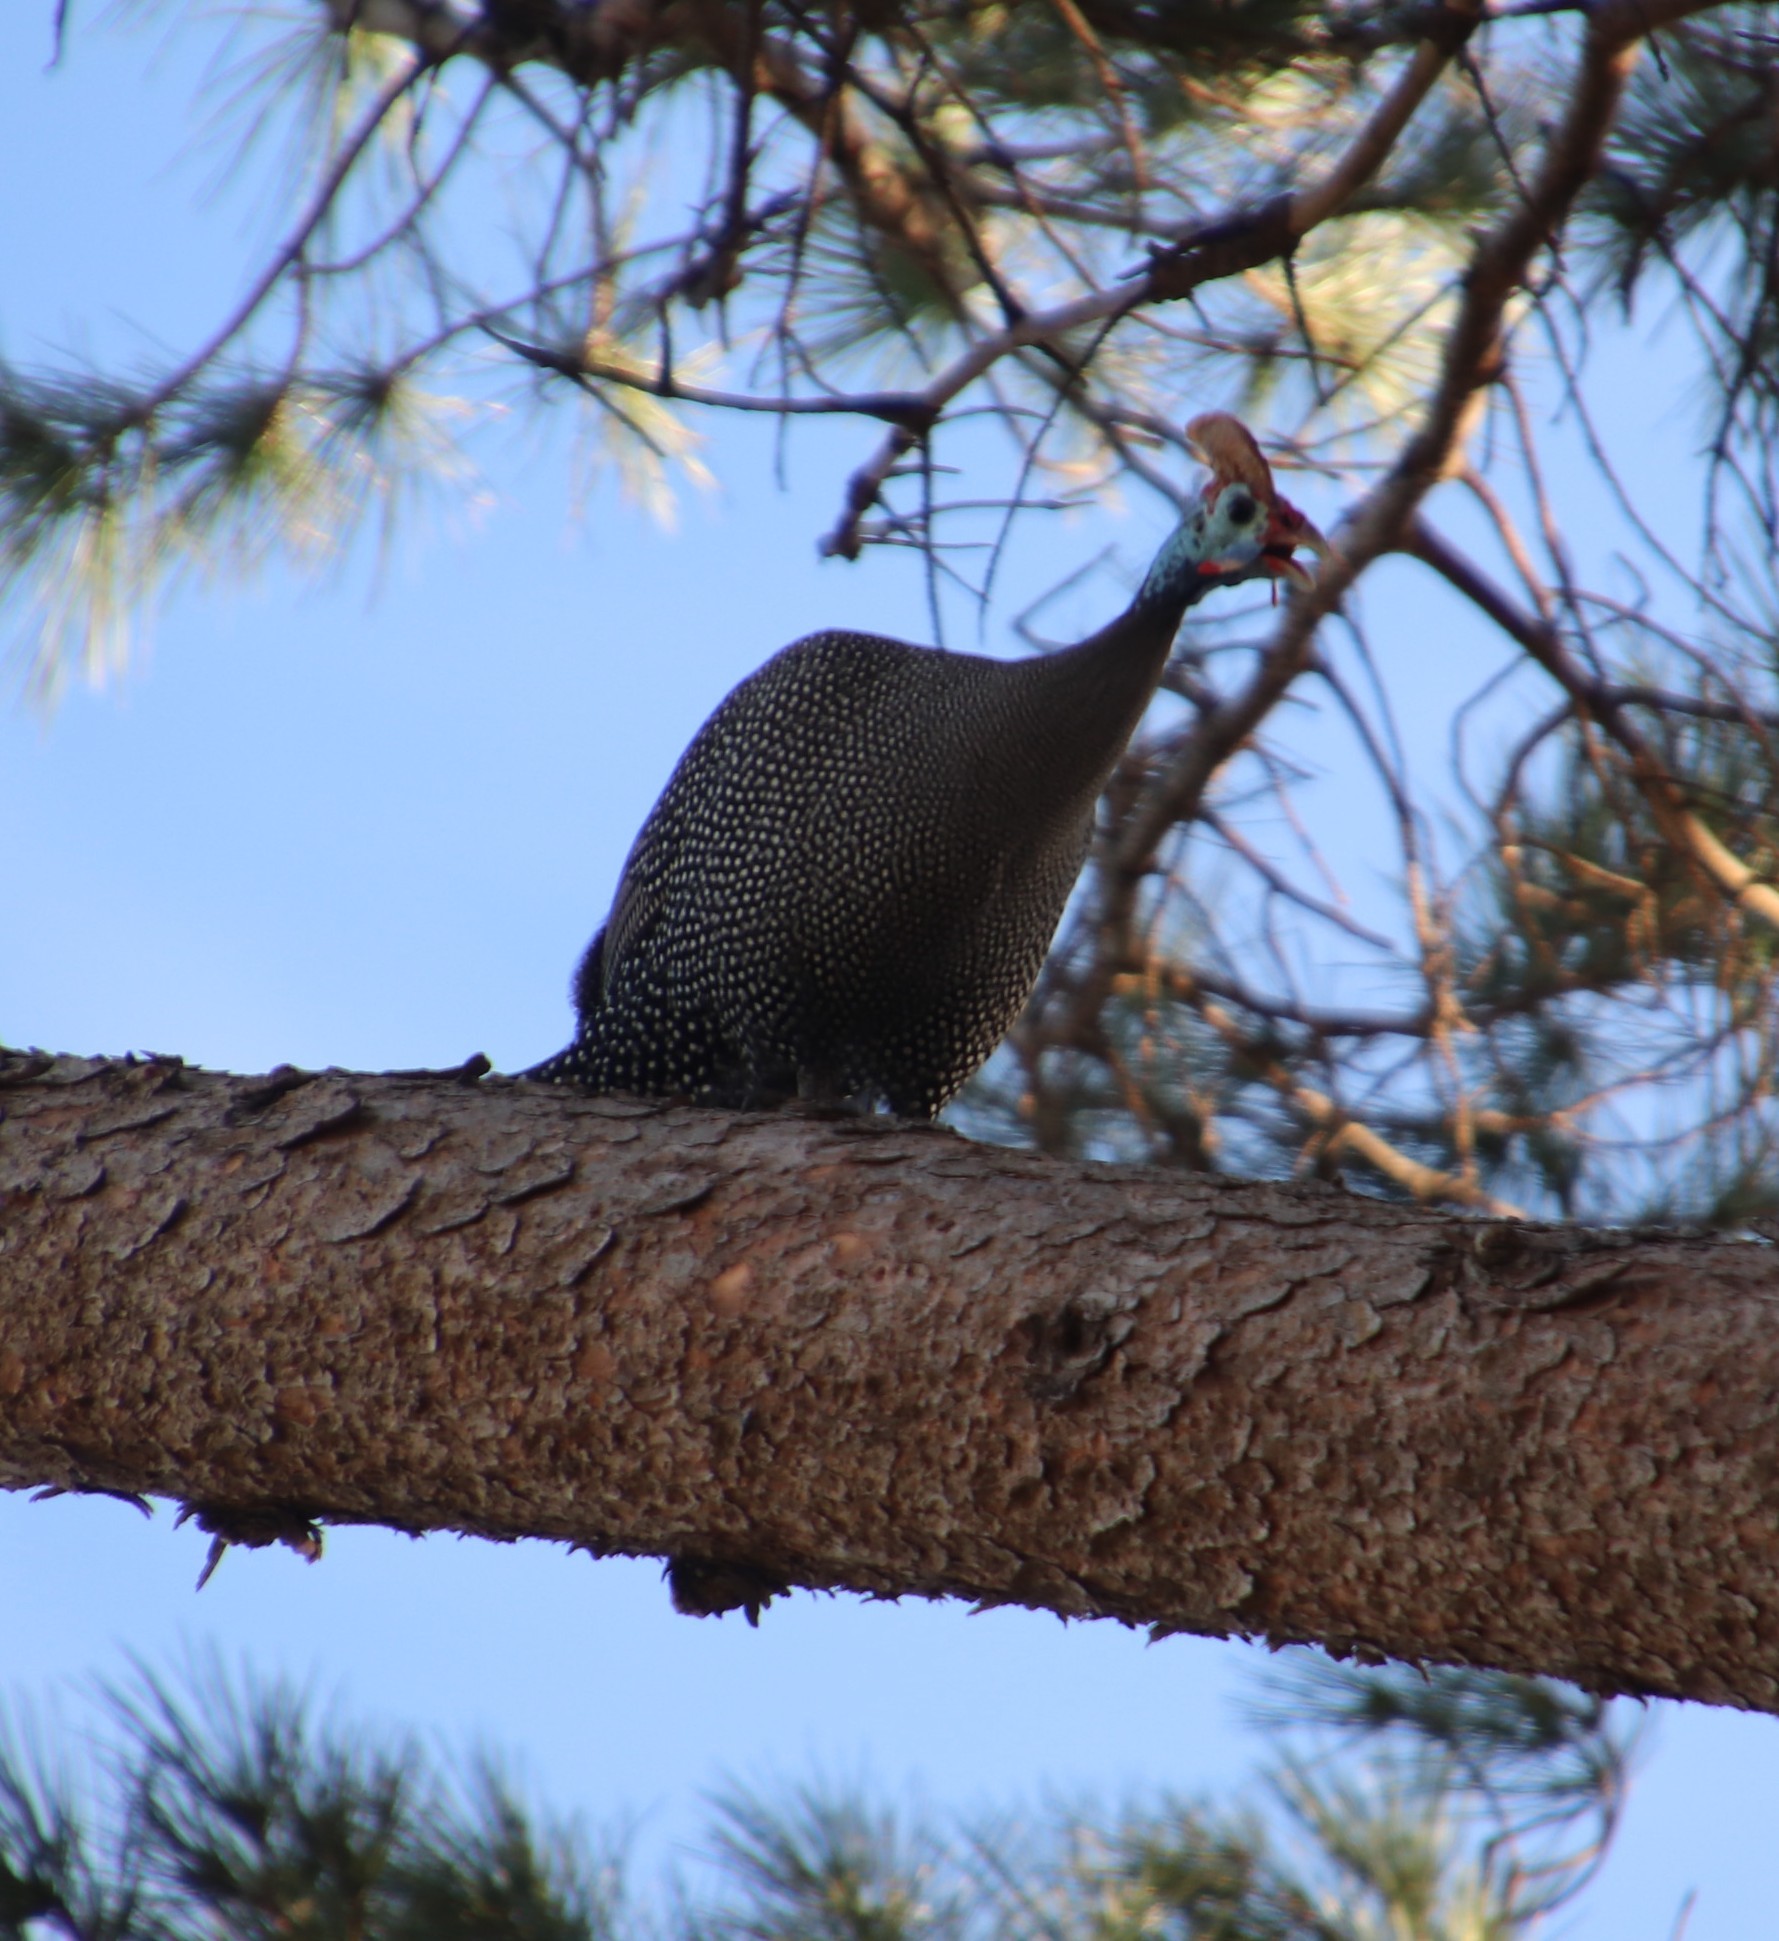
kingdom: Animalia
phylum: Chordata
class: Aves
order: Galliformes
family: Numididae
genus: Numida
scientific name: Numida meleagris
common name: Helmeted guineafowl
